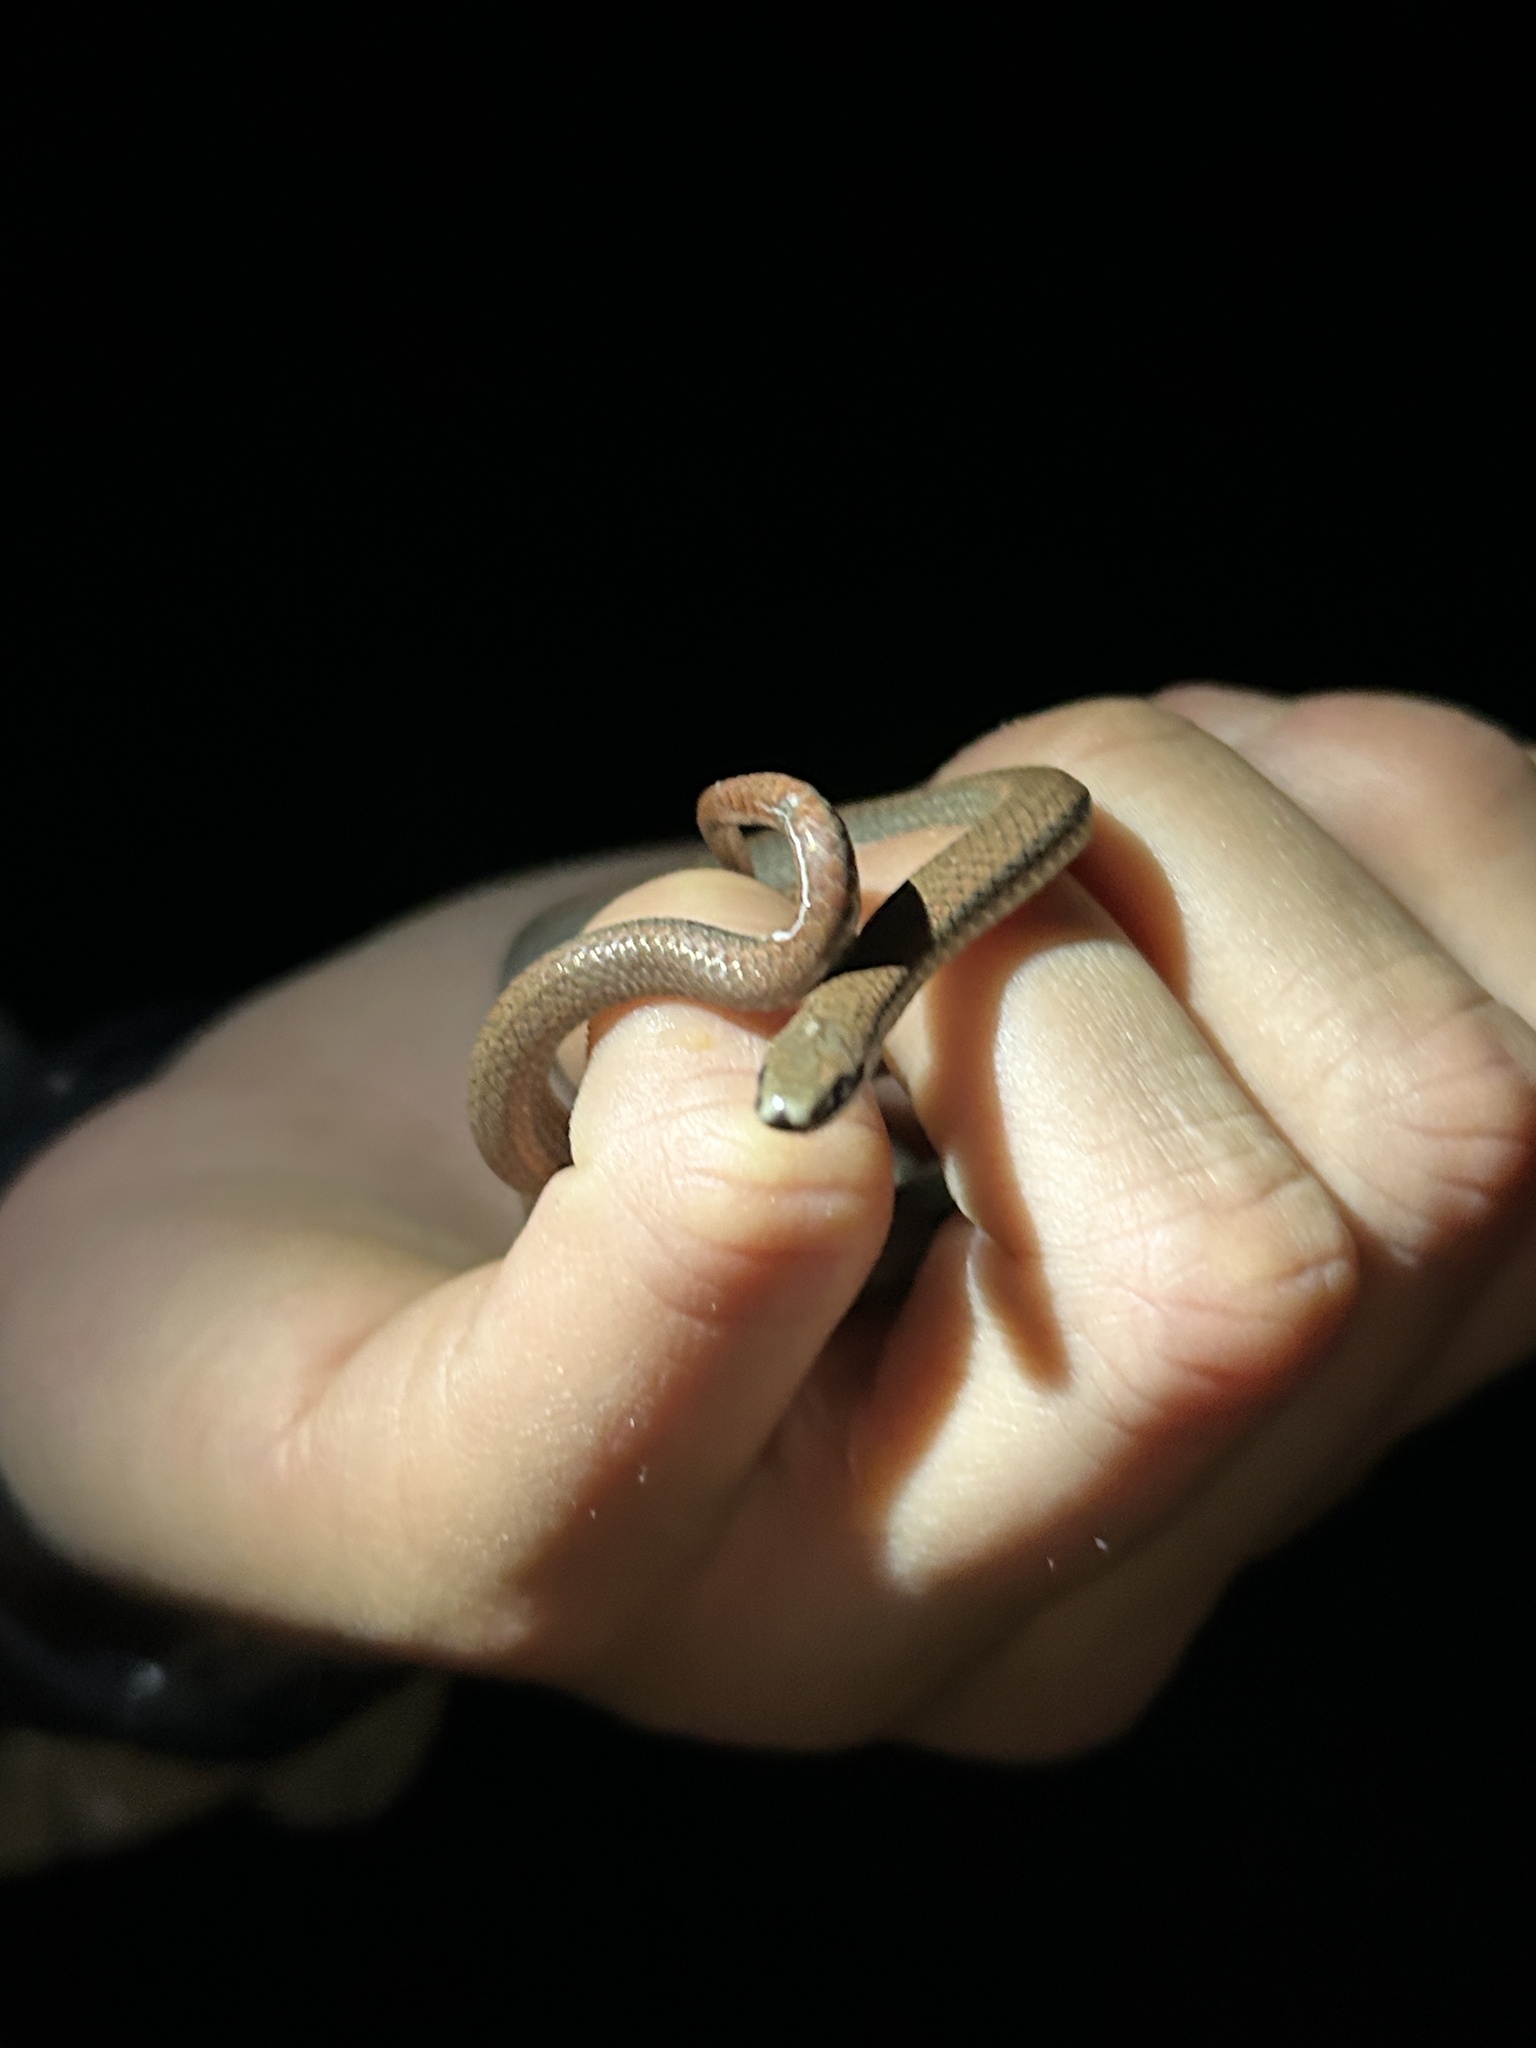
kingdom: Animalia
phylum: Chordata
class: Squamata
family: Colubridae
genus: Contia
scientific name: Contia tenuis
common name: Sharptail snake
